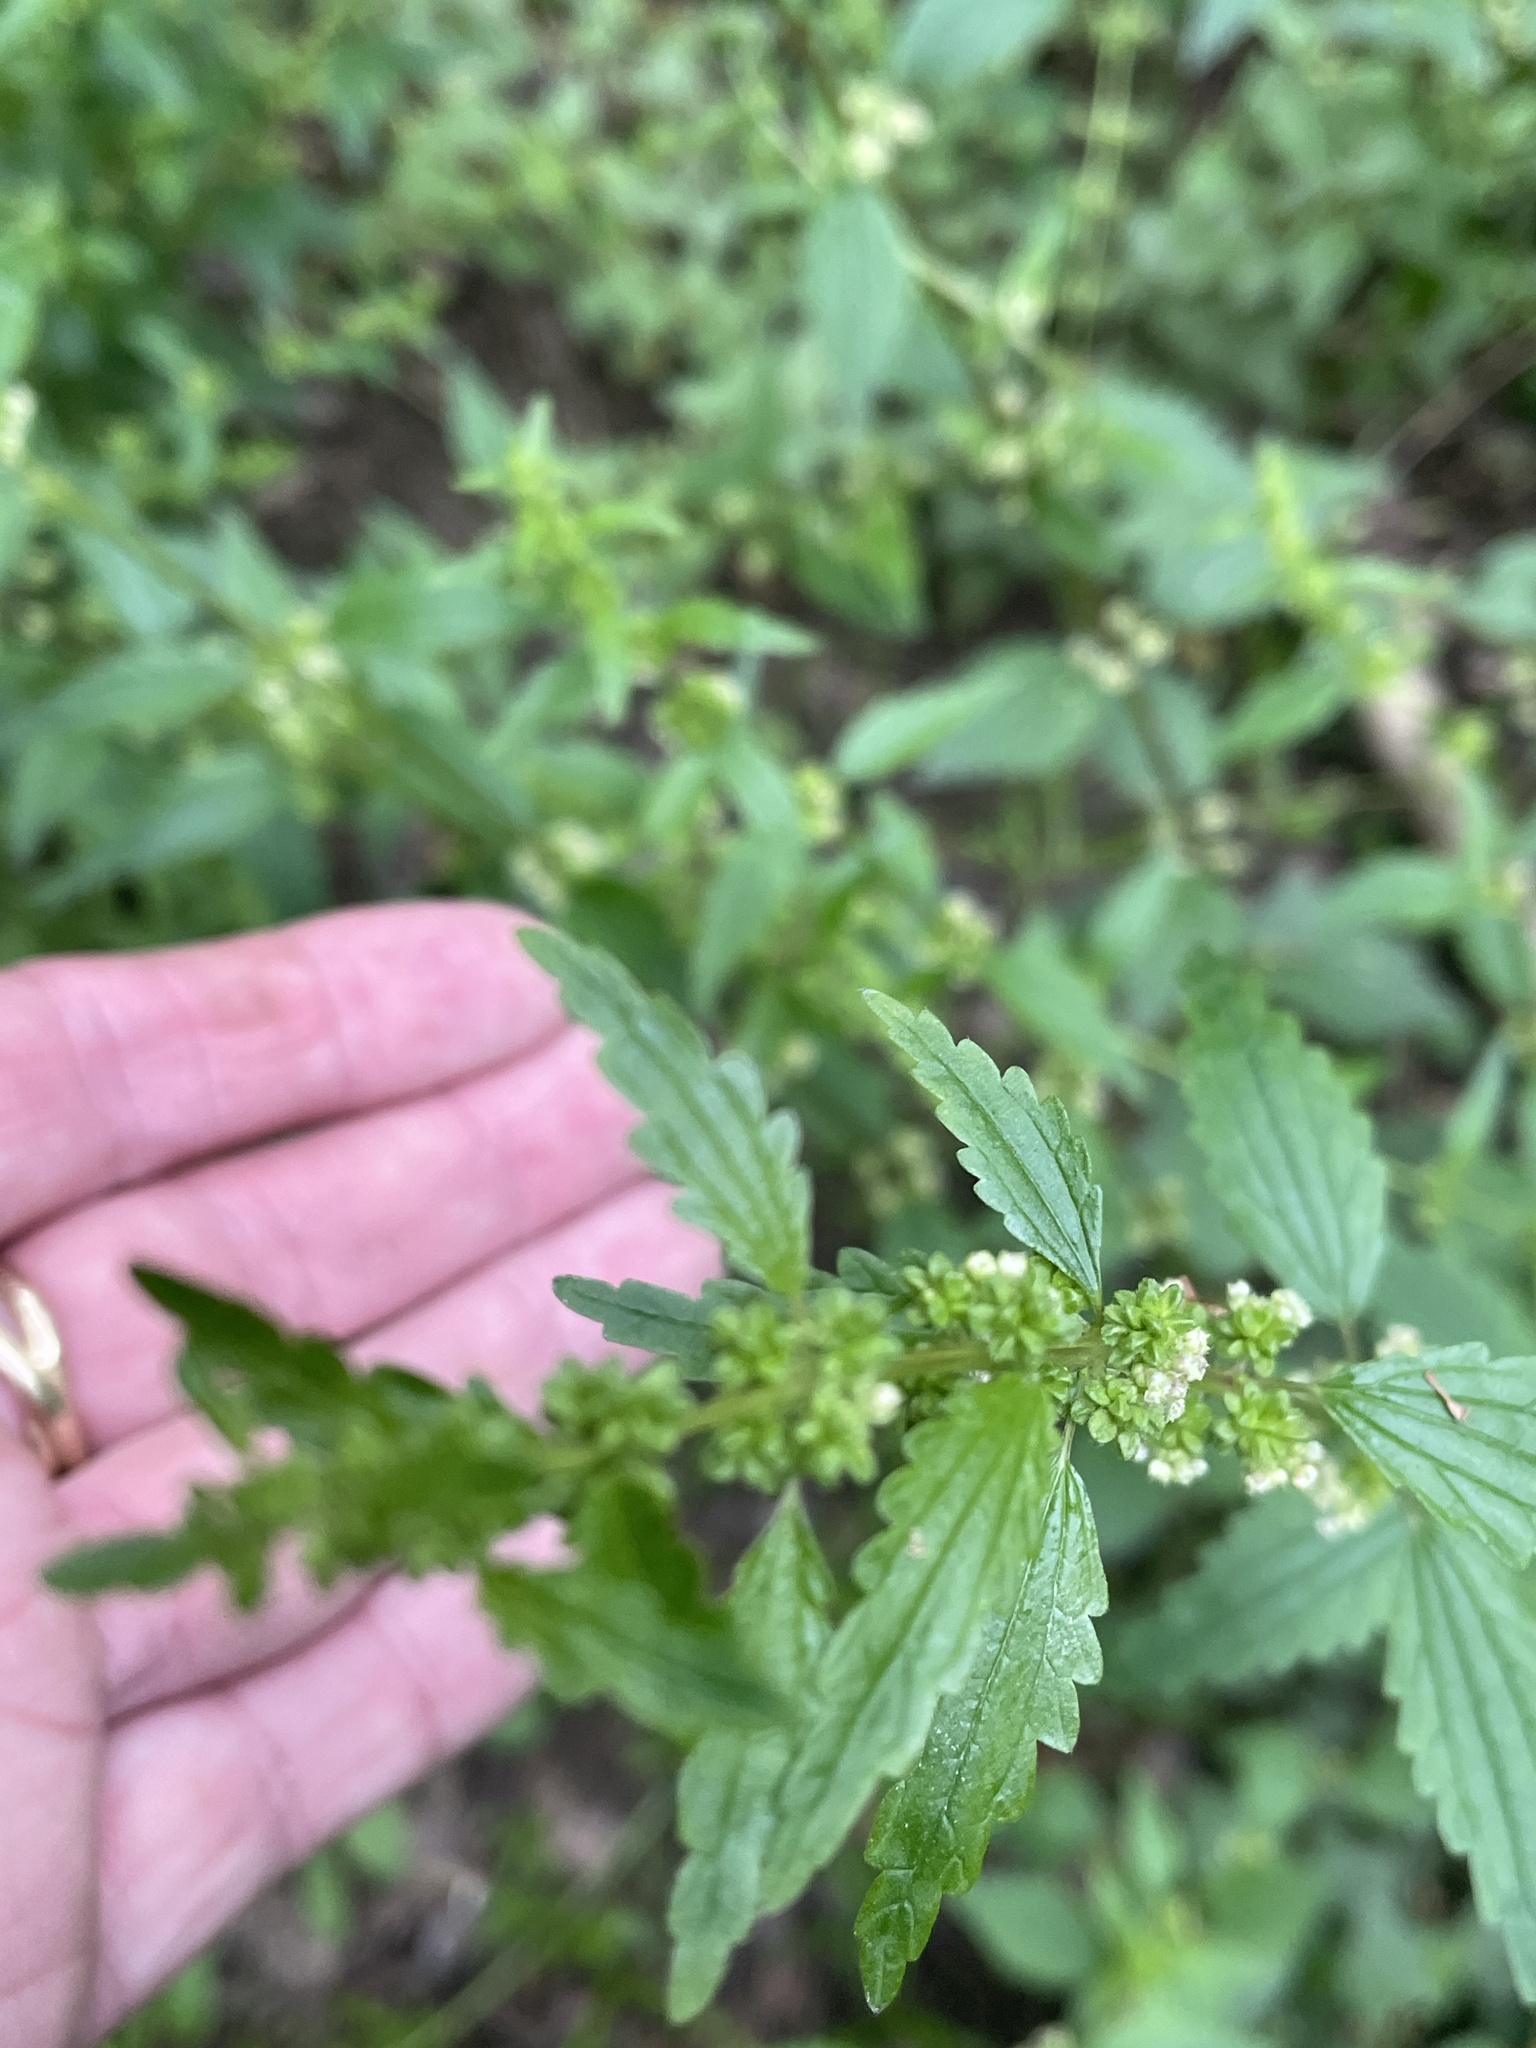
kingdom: Plantae
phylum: Tracheophyta
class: Magnoliopsida
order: Rosales
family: Urticaceae
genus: Urtica
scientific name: Urtica chamaedryoides
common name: Heart-leaf nettle
